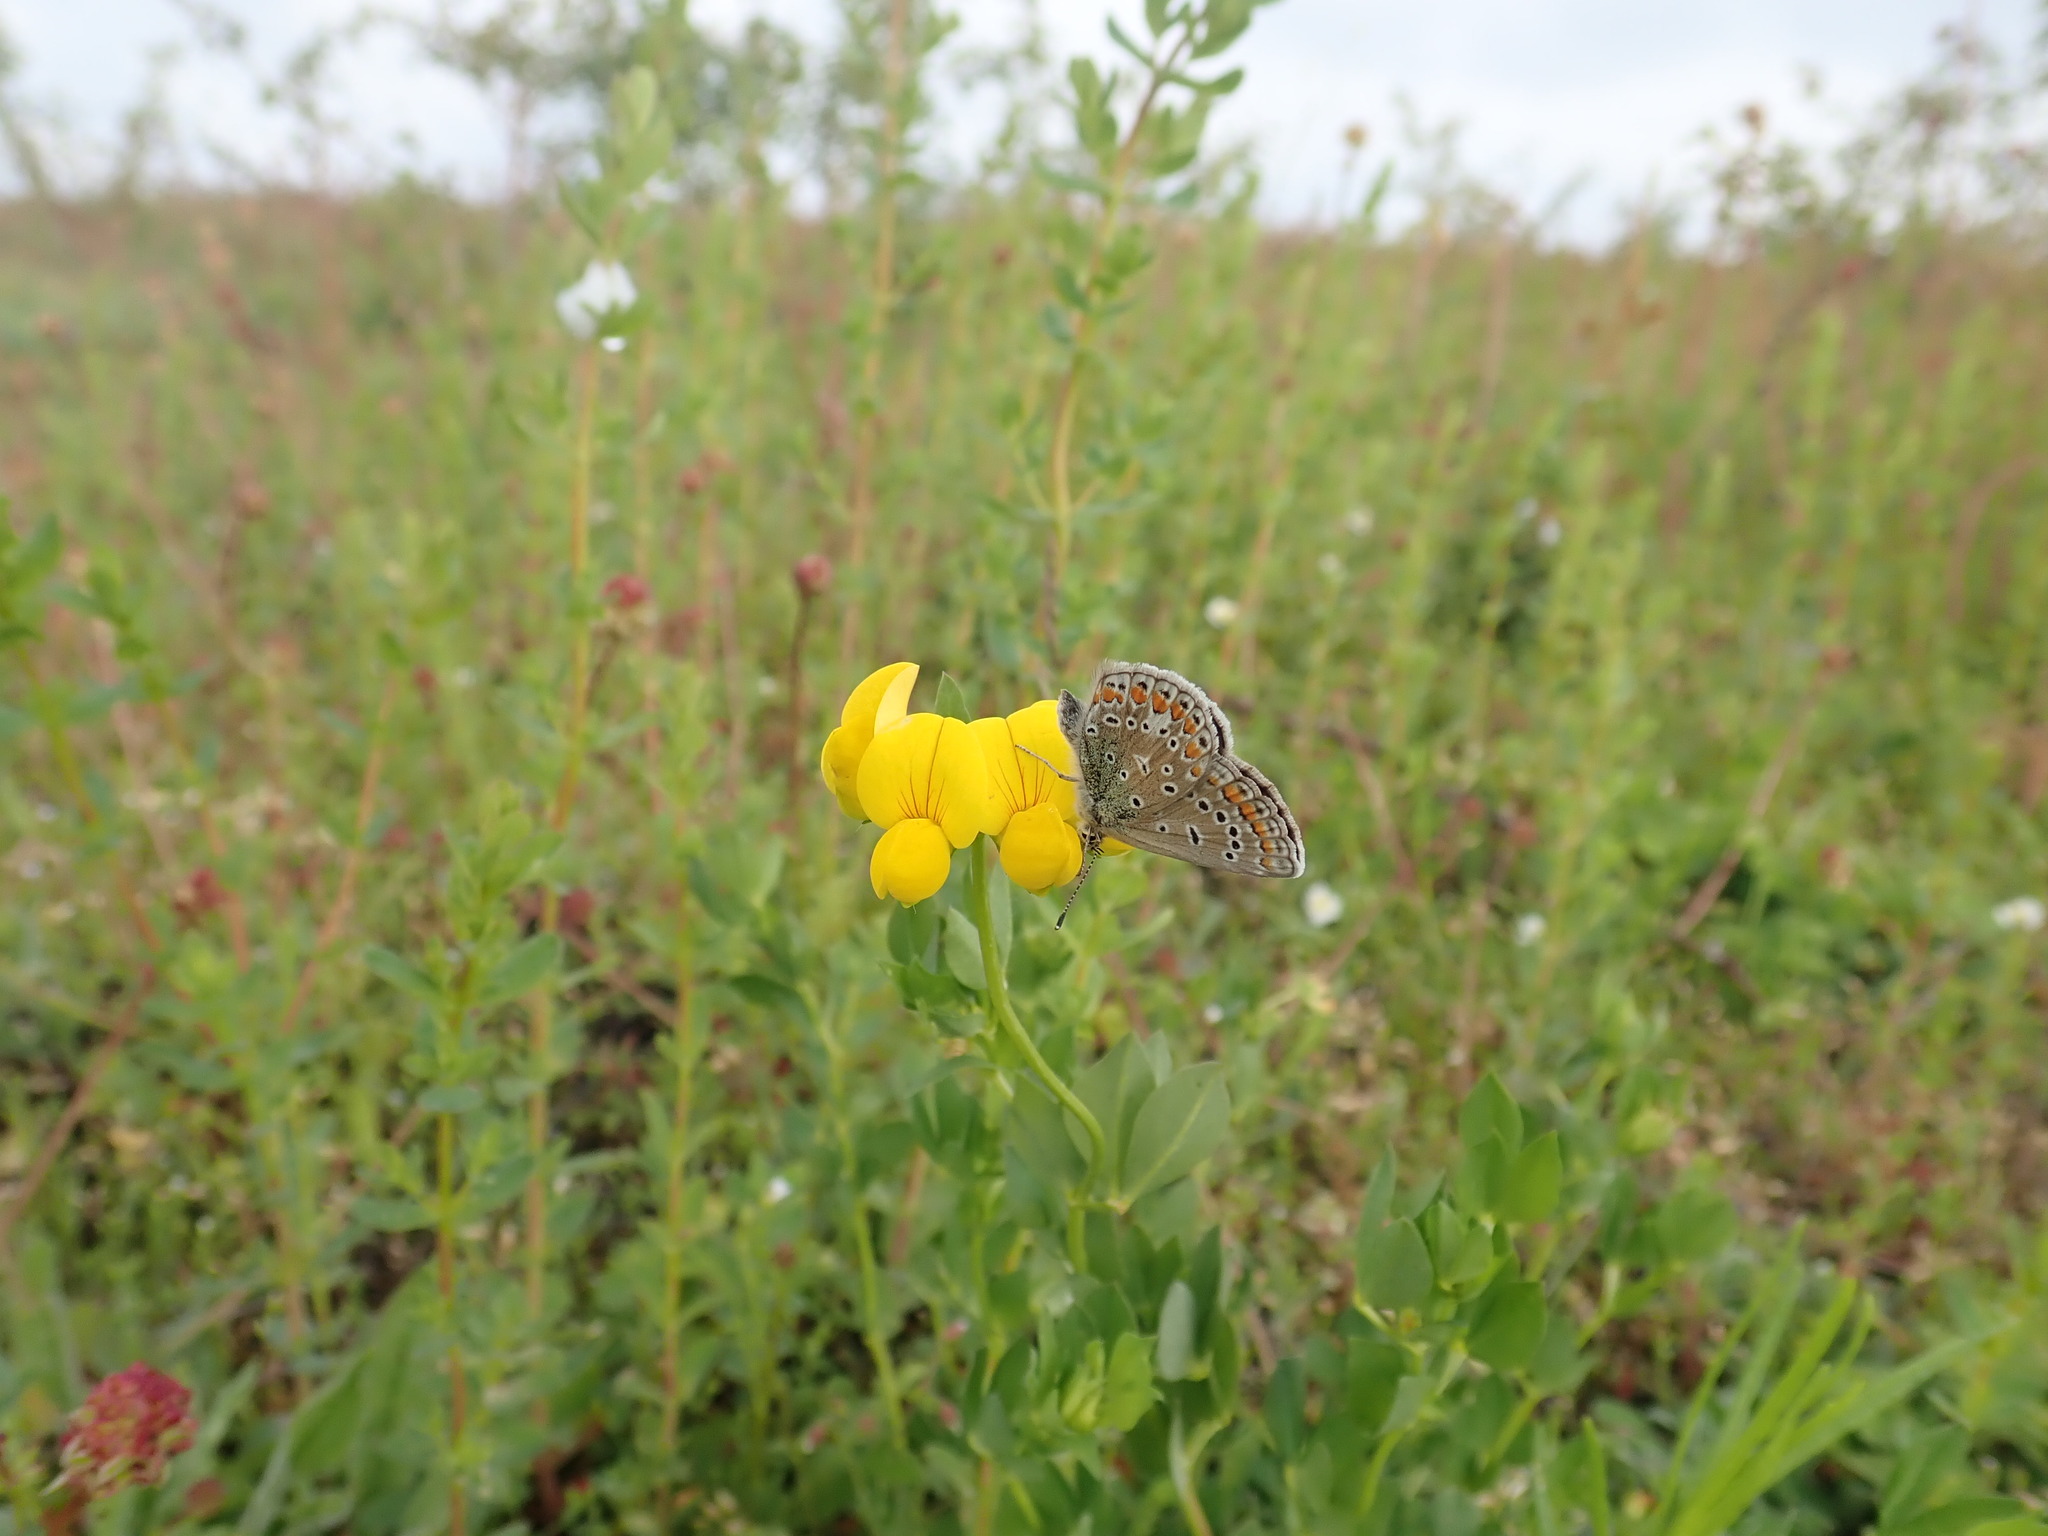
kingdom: Animalia
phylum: Arthropoda
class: Insecta
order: Lepidoptera
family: Lycaenidae
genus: Polyommatus
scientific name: Polyommatus icarus
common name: Common blue
